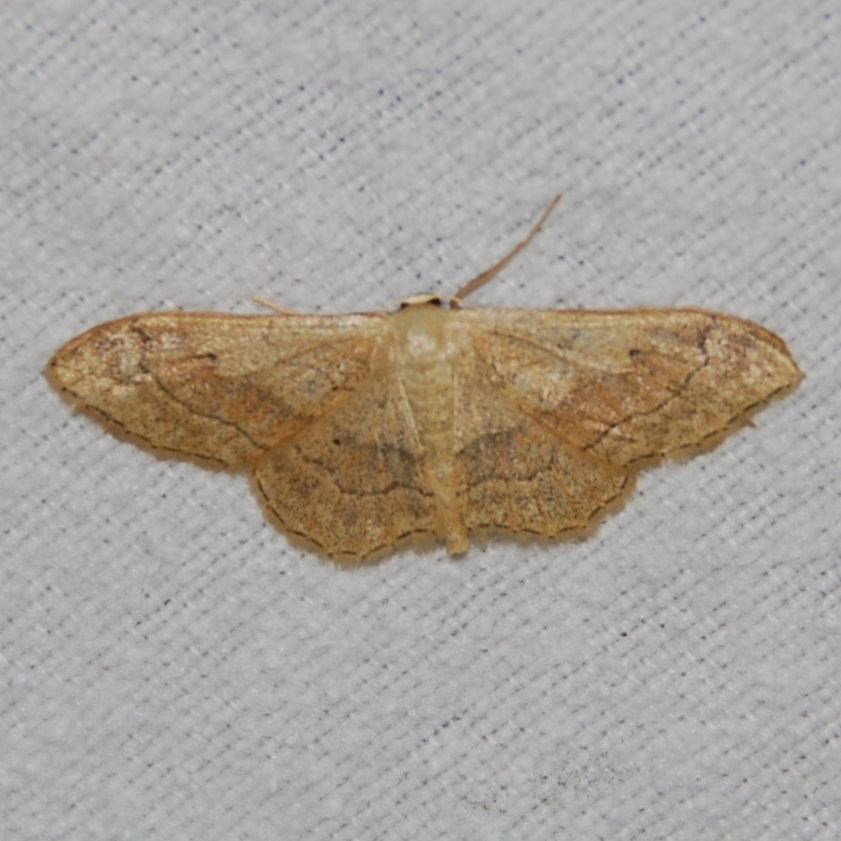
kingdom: Animalia
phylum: Arthropoda
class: Insecta
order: Lepidoptera
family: Geometridae
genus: Idaea
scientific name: Idaea aversata
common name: Riband wave
